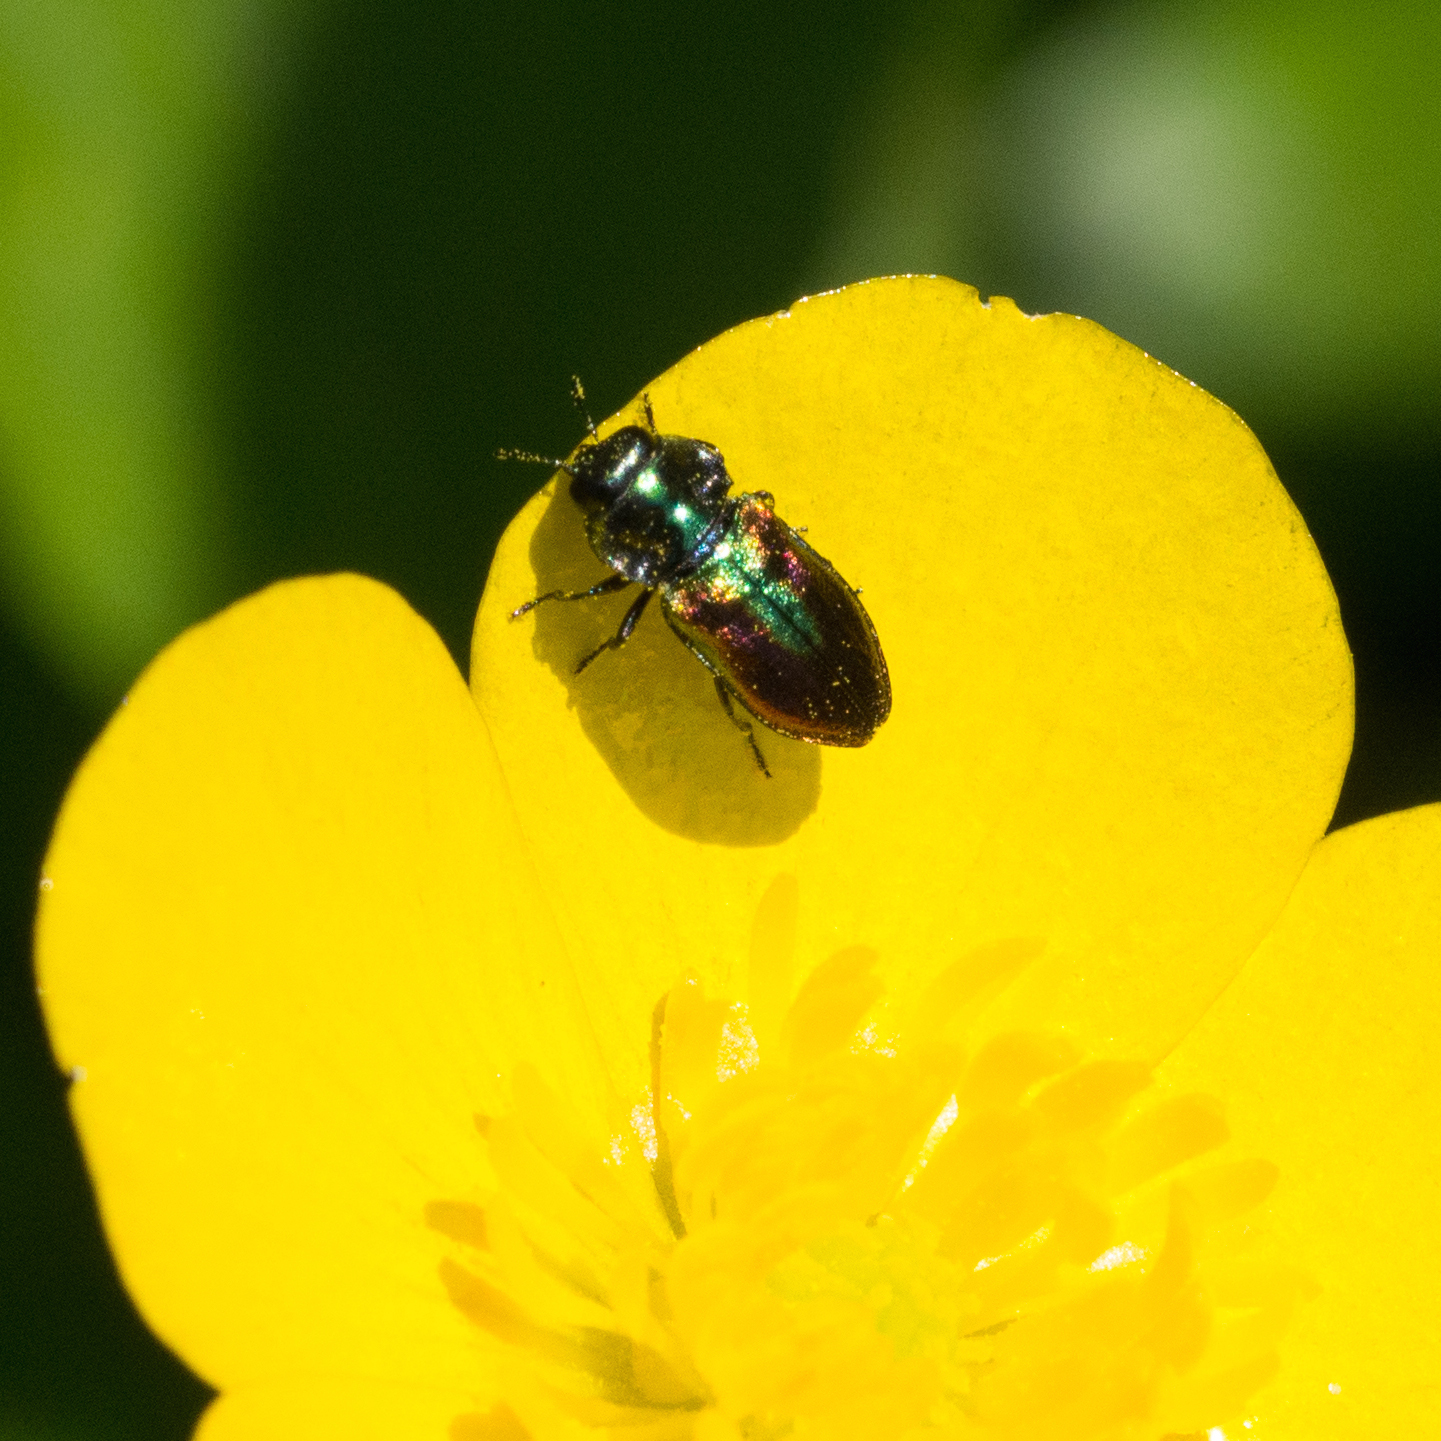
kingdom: Animalia
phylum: Arthropoda
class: Insecta
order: Coleoptera
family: Buprestidae
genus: Anthaxia
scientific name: Anthaxia fulgurans
